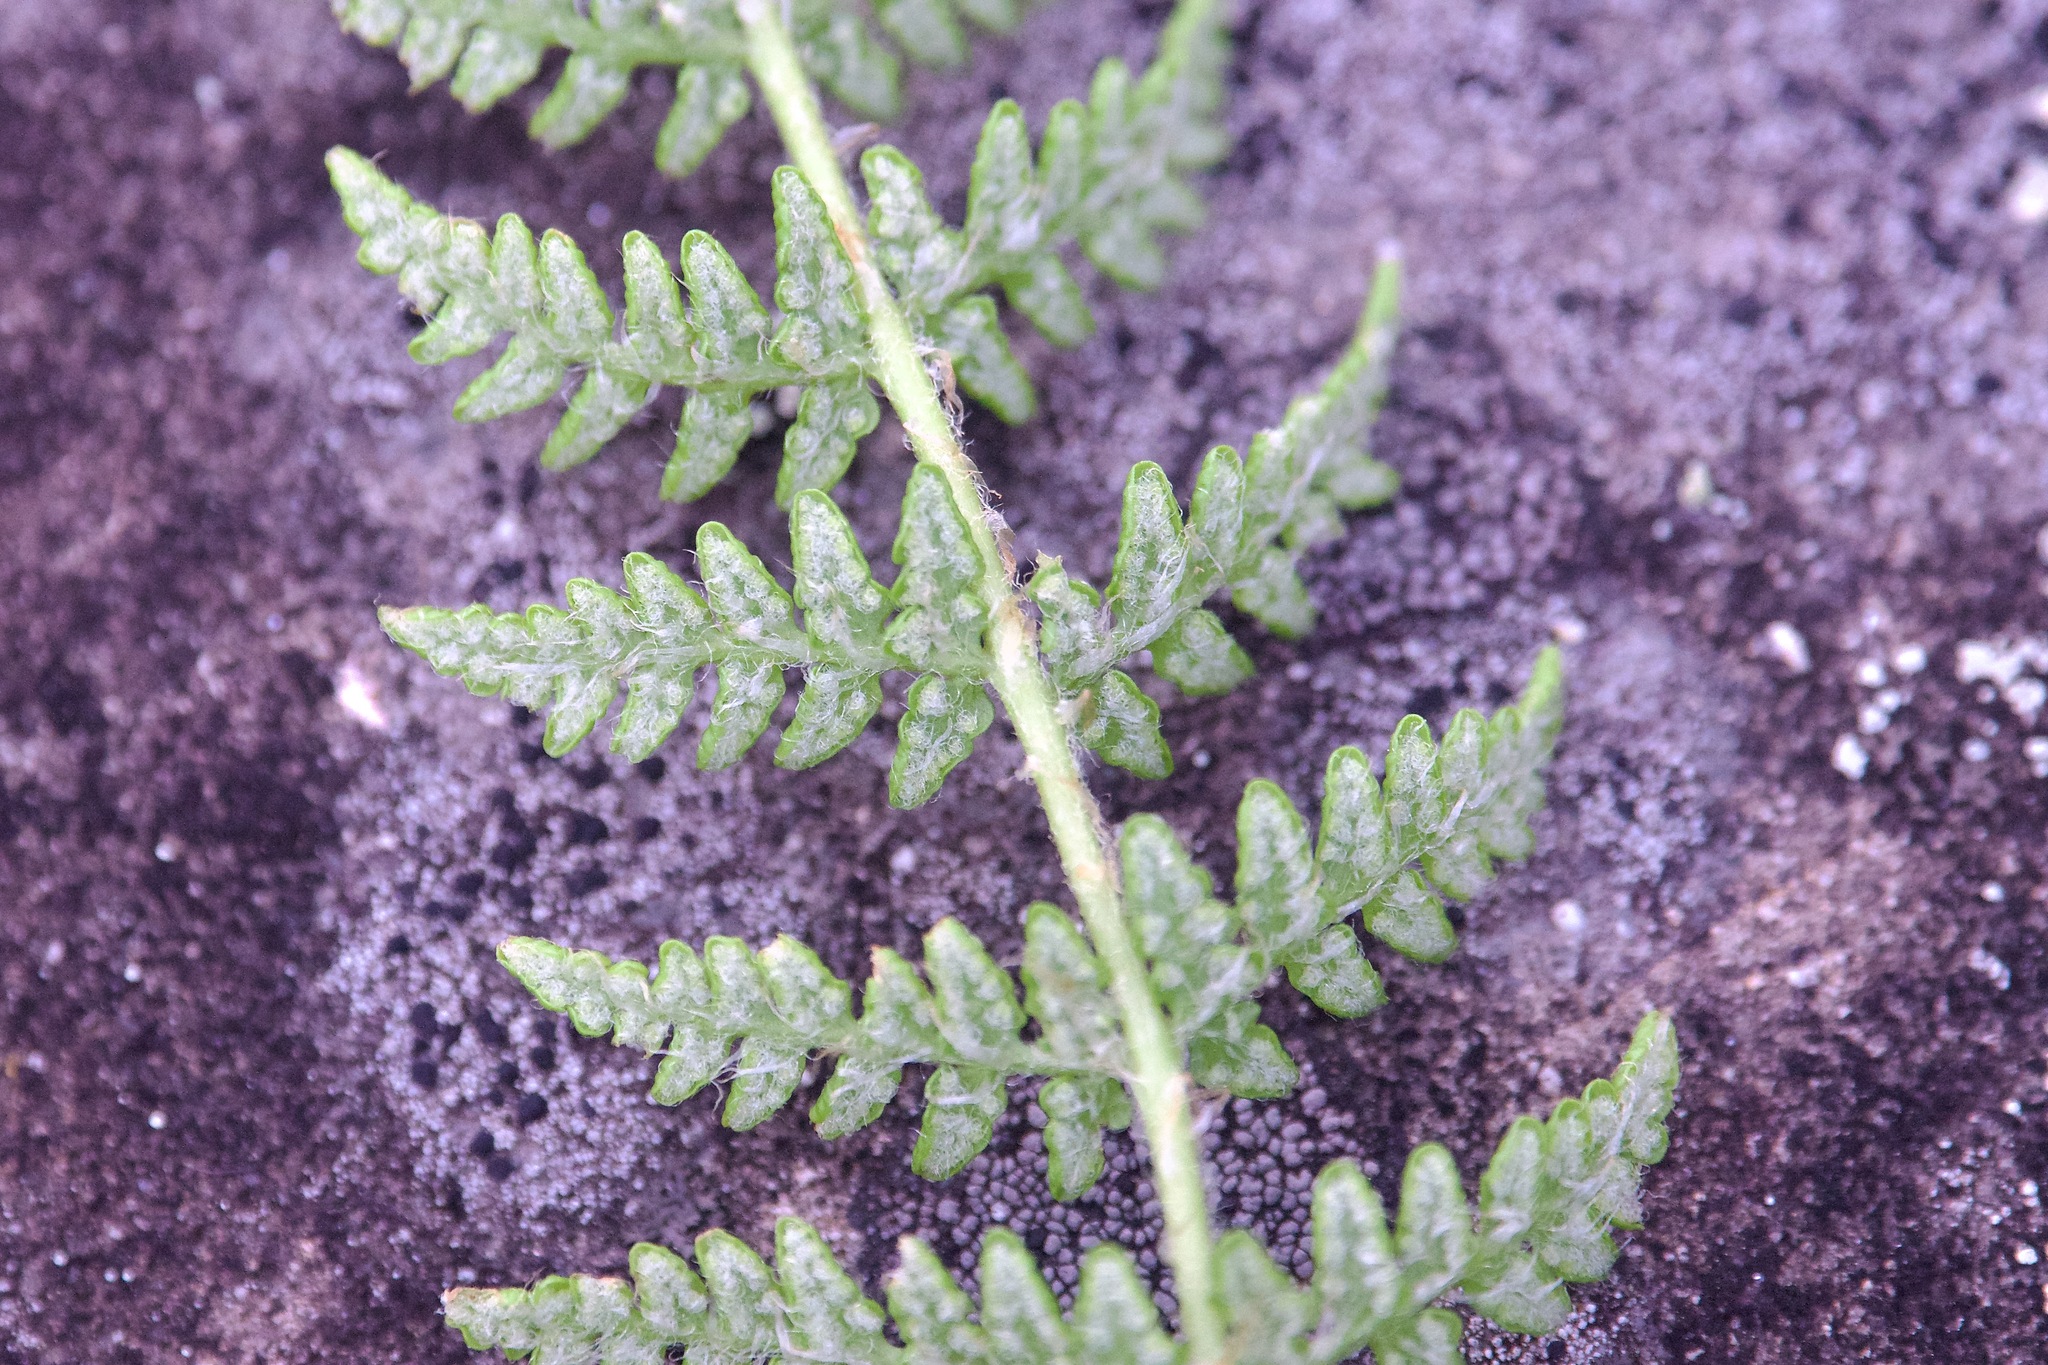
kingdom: Plantae
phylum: Tracheophyta
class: Polypodiopsida
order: Polypodiales
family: Woodsiaceae
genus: Woodsia
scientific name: Woodsia ilvensis
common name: Fragrant woodsia
